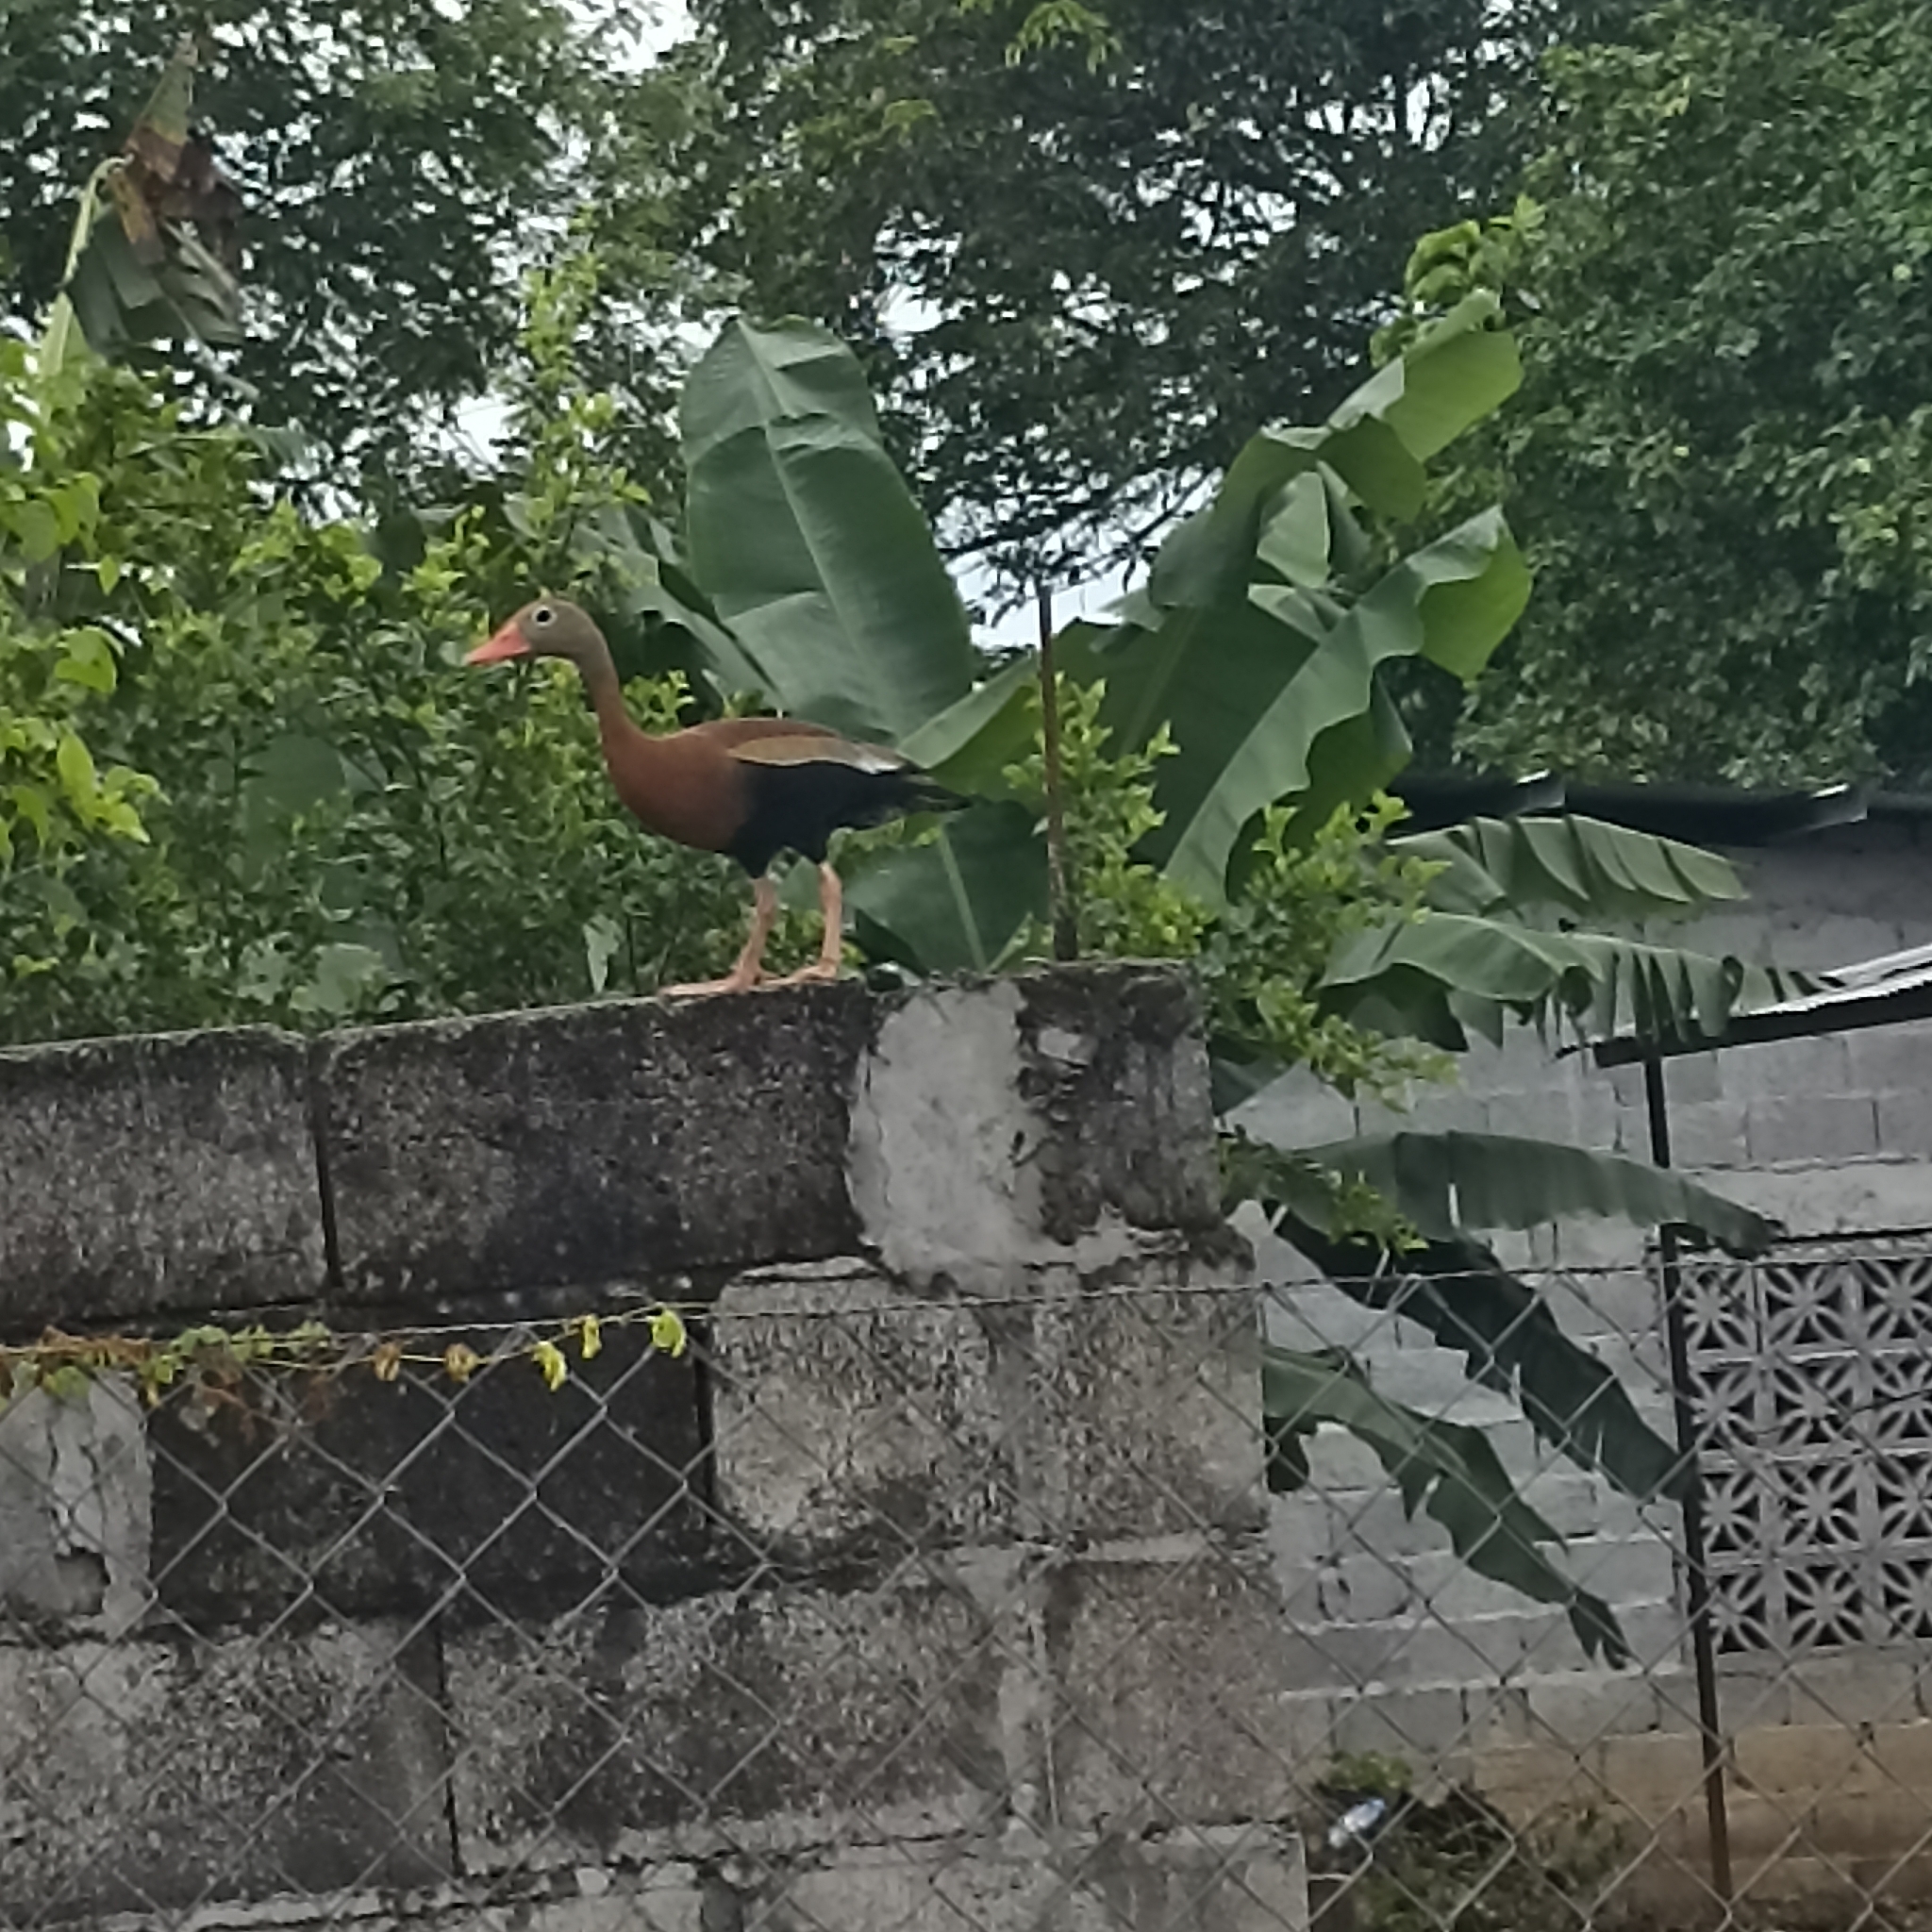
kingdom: Animalia
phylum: Chordata
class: Aves
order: Anseriformes
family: Anatidae
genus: Dendrocygna
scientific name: Dendrocygna autumnalis
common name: Black-bellied whistling duck
